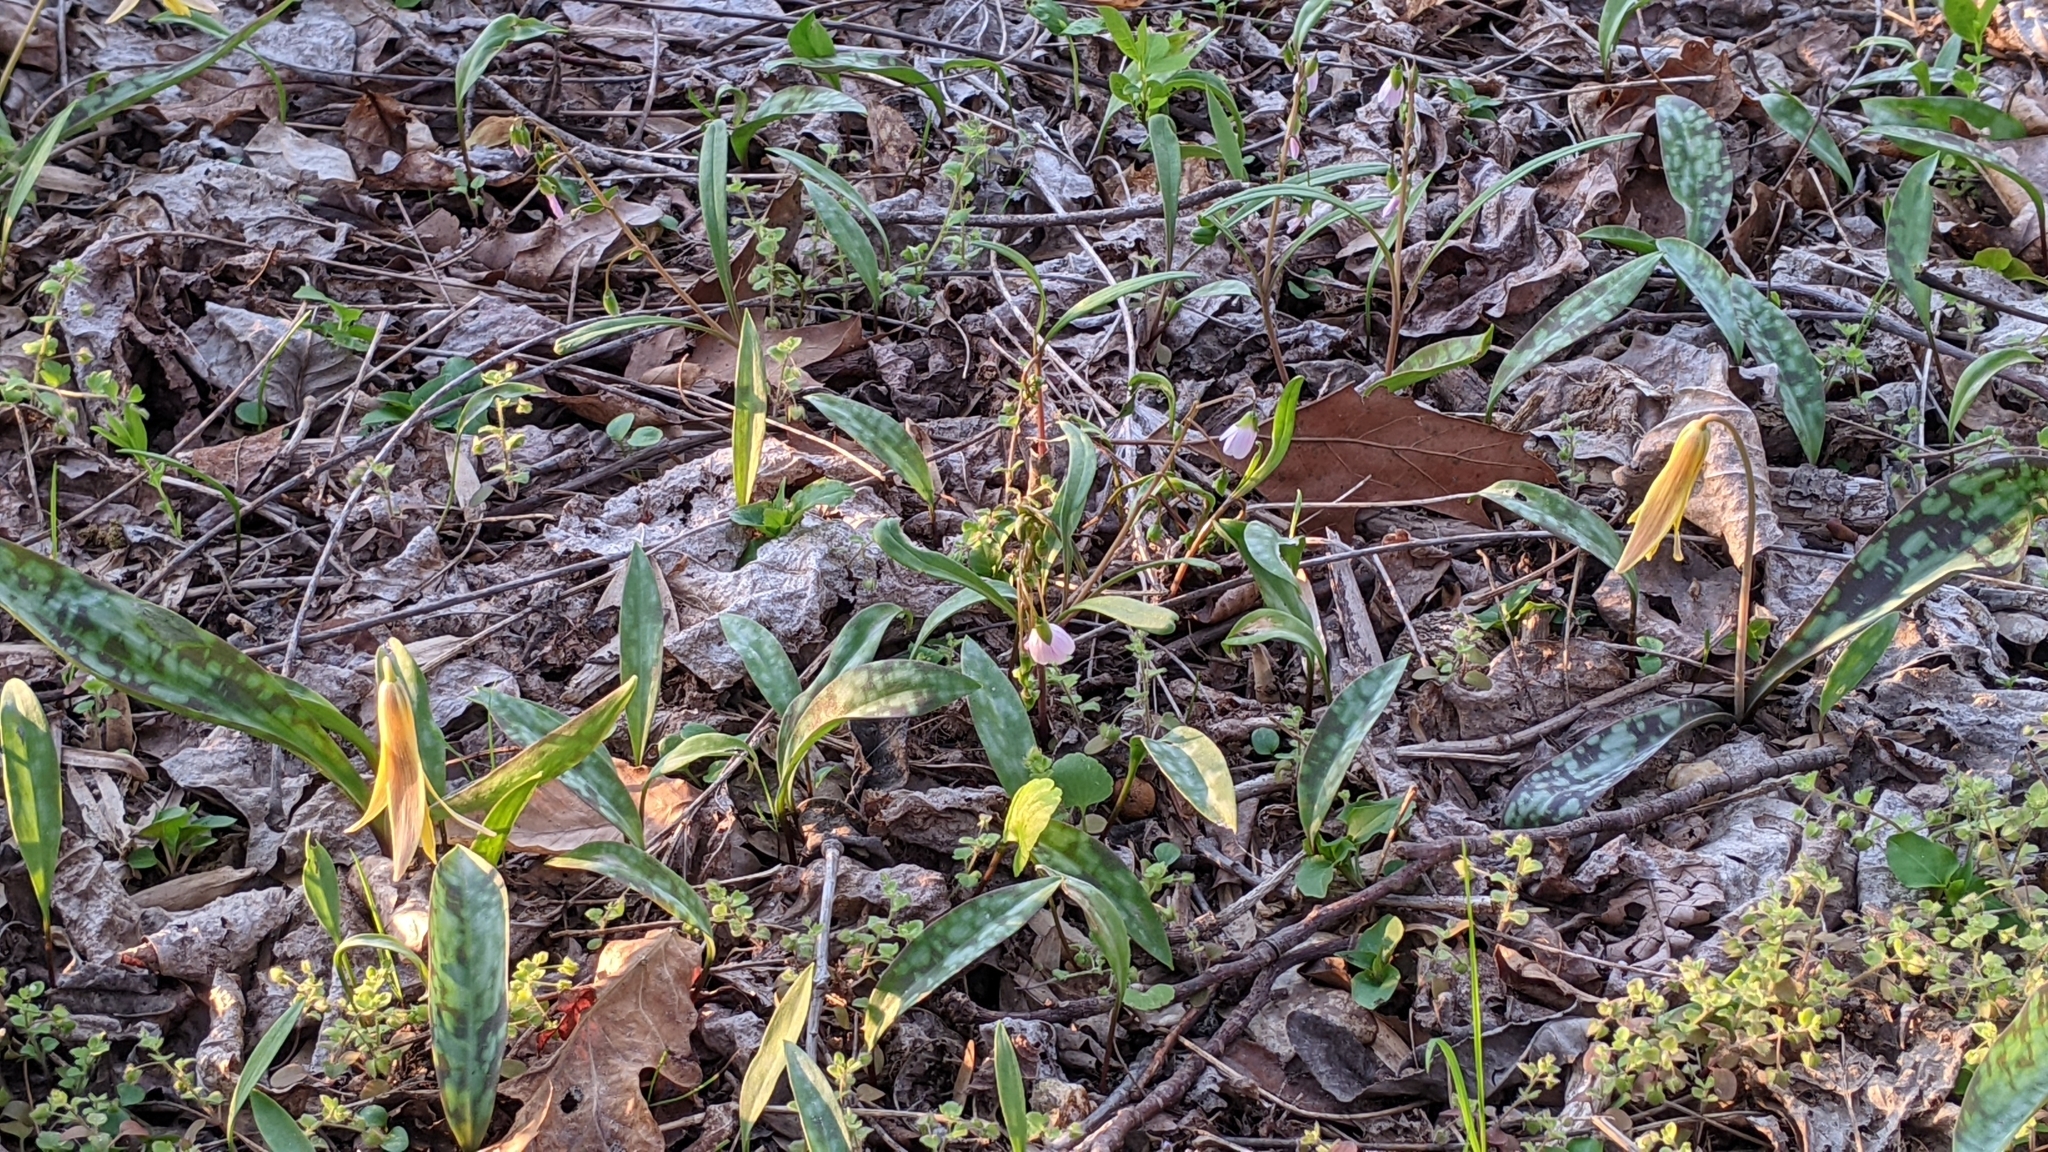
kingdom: Plantae
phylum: Tracheophyta
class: Liliopsida
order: Liliales
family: Liliaceae
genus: Erythronium
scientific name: Erythronium americanum
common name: Yellow adder's-tongue
